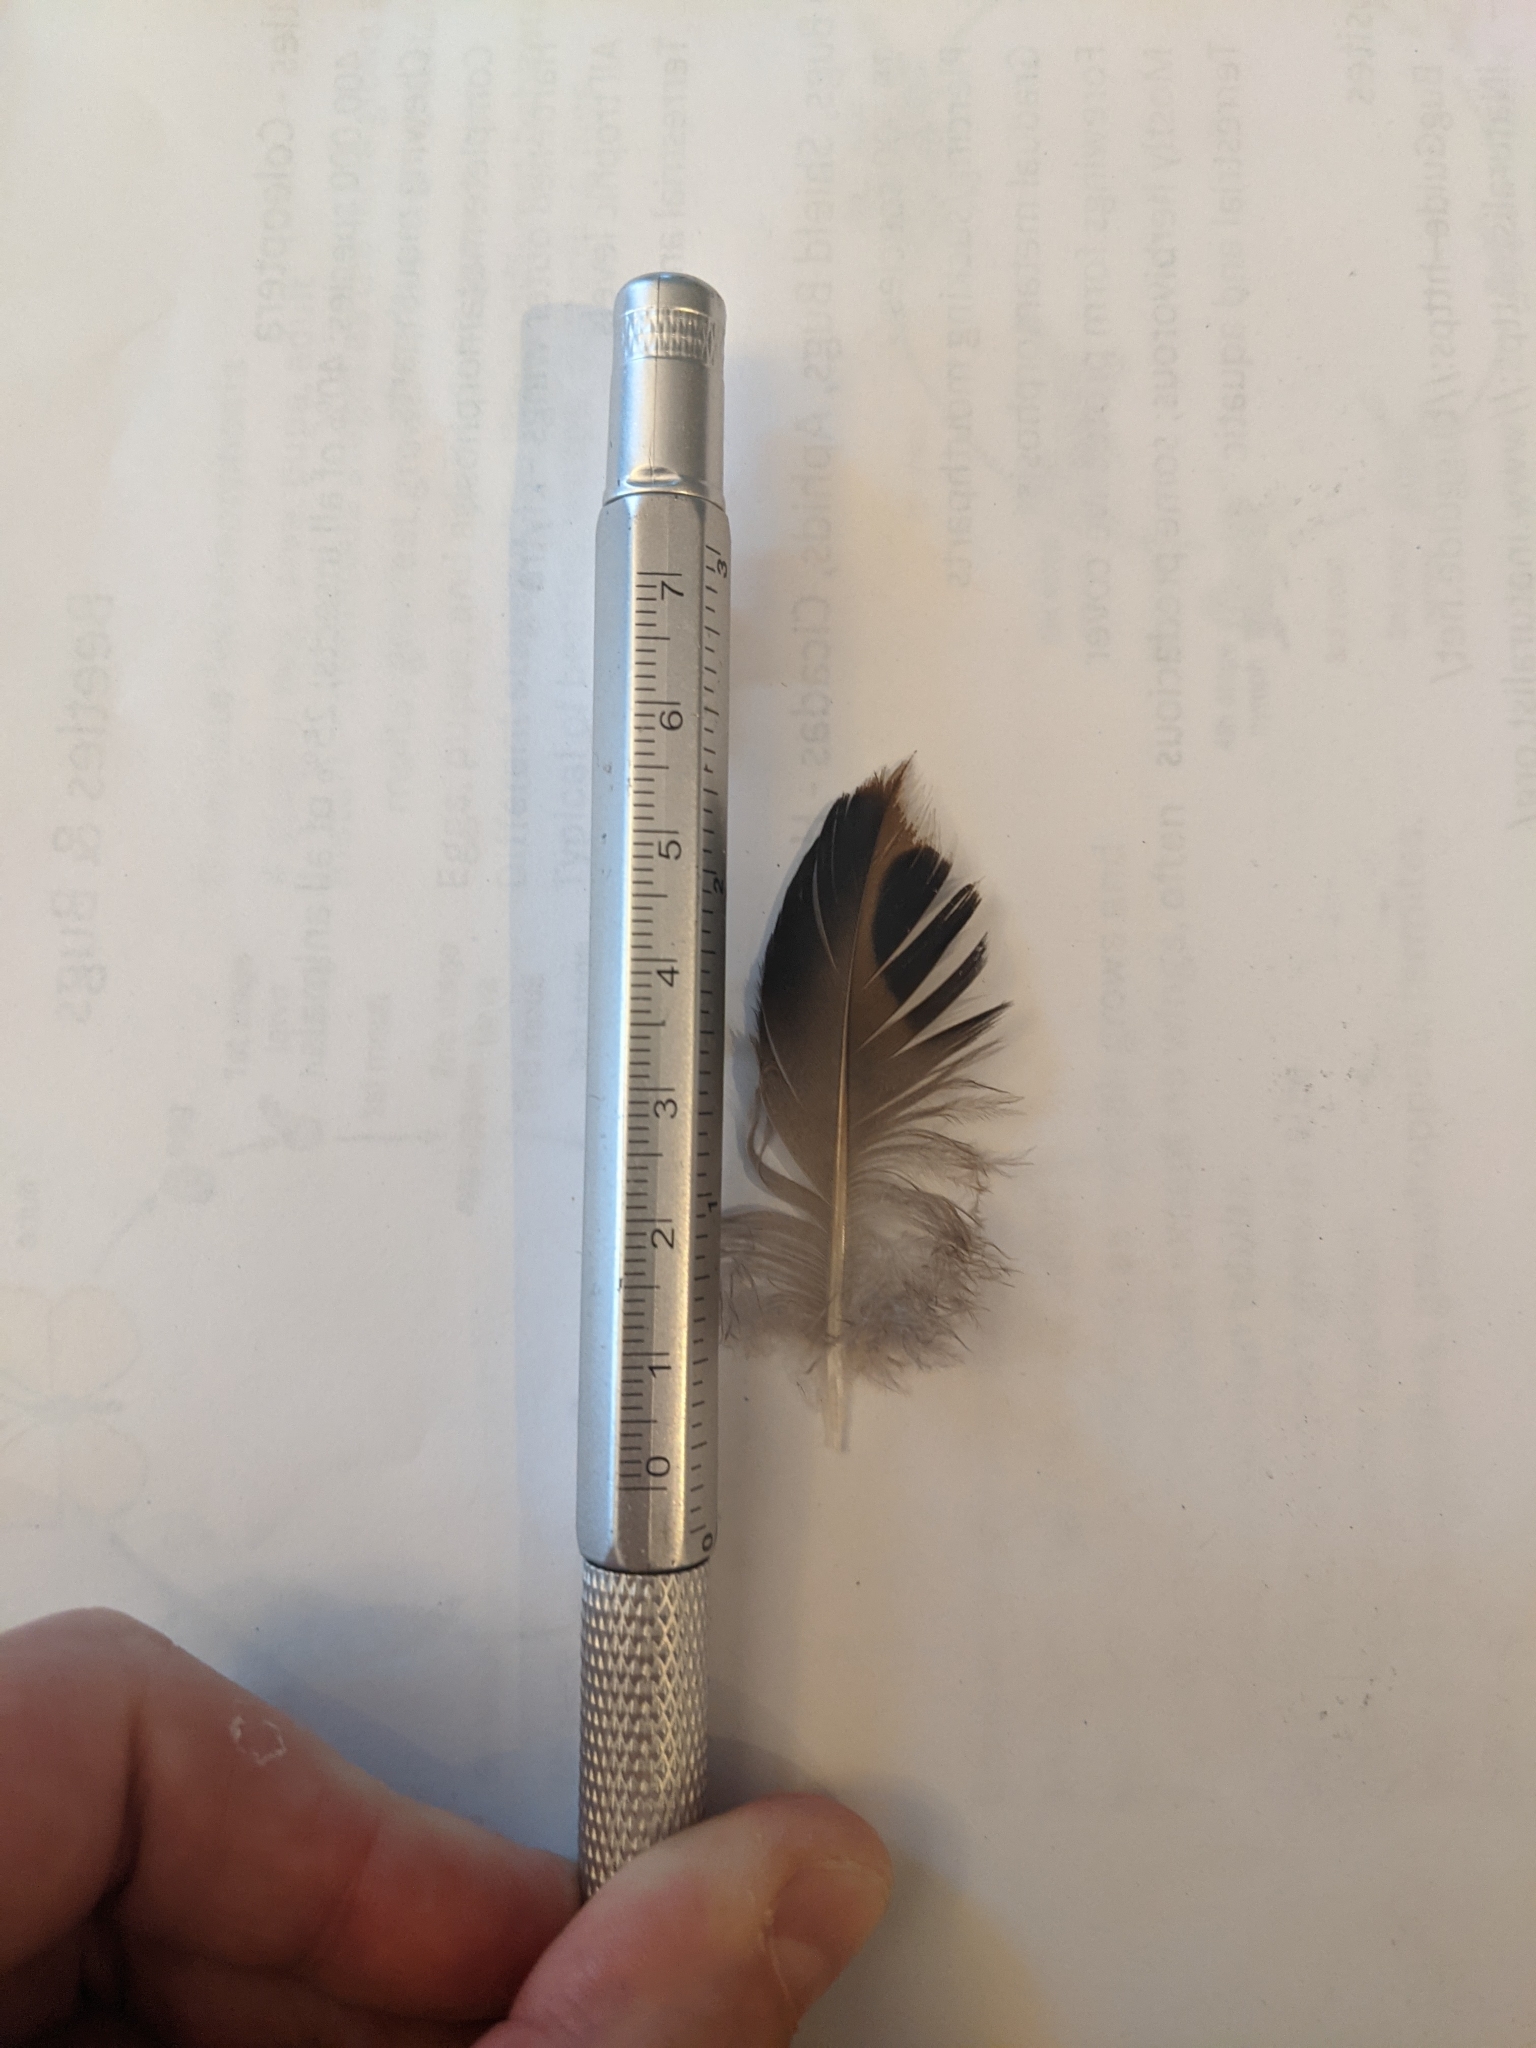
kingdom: Animalia
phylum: Chordata
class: Aves
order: Columbiformes
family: Columbidae
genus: Zenaida
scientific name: Zenaida macroura
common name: Mourning dove
